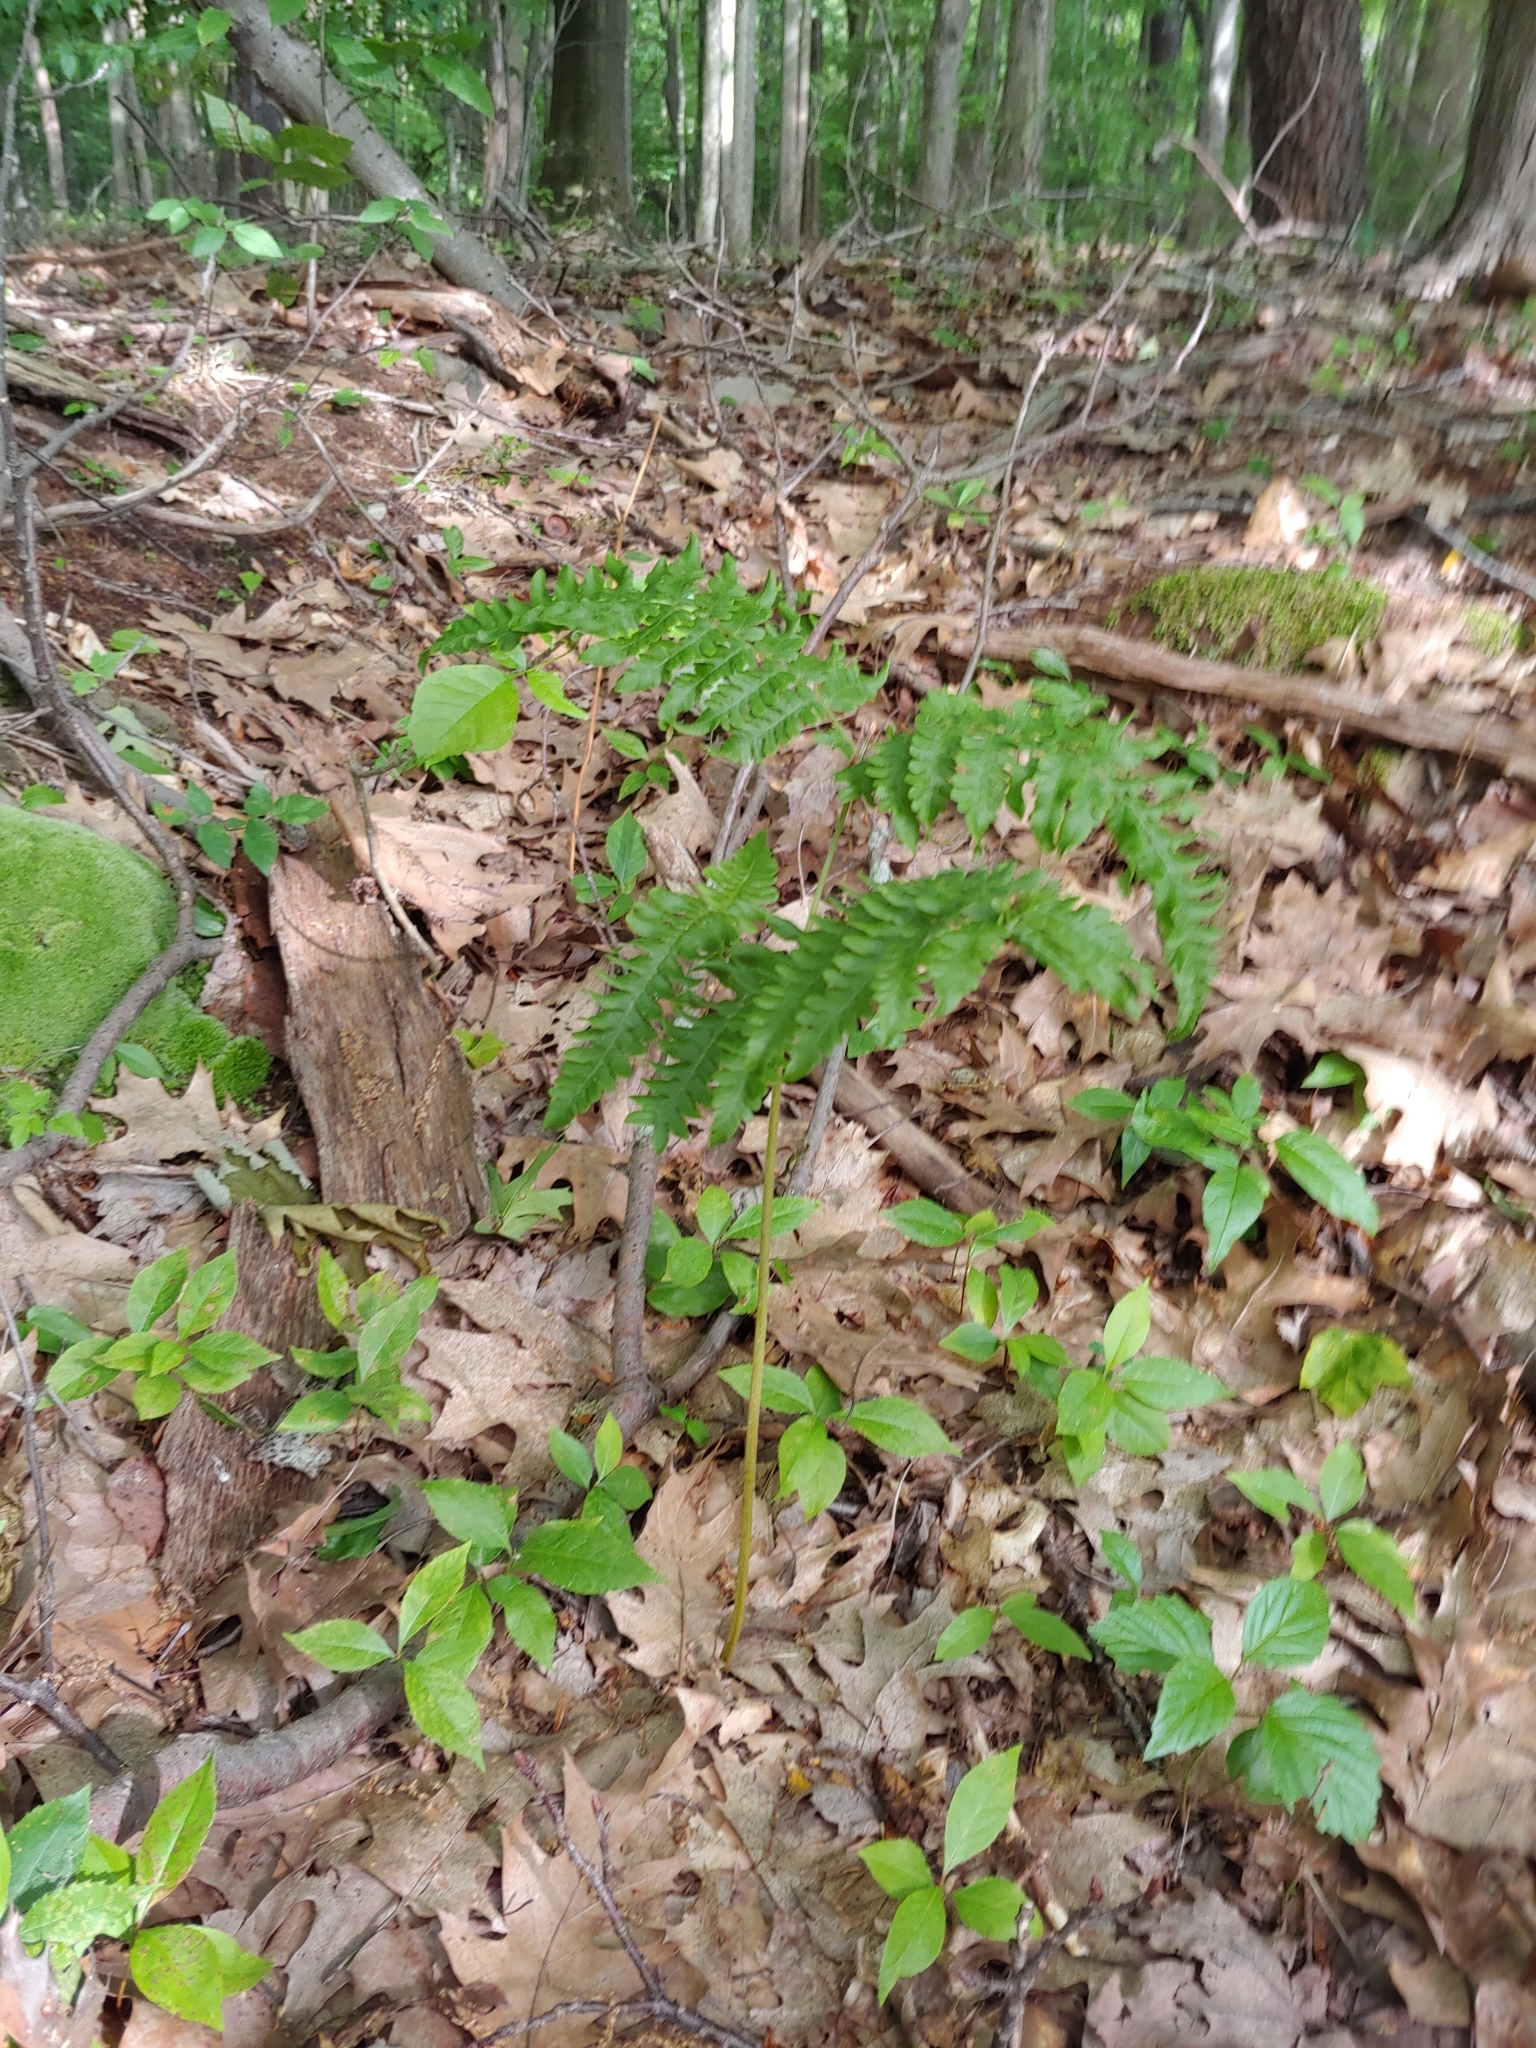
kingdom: Plantae
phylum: Tracheophyta
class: Polypodiopsida
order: Polypodiales
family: Dennstaedtiaceae
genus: Pteridium
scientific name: Pteridium aquilinum
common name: Bracken
